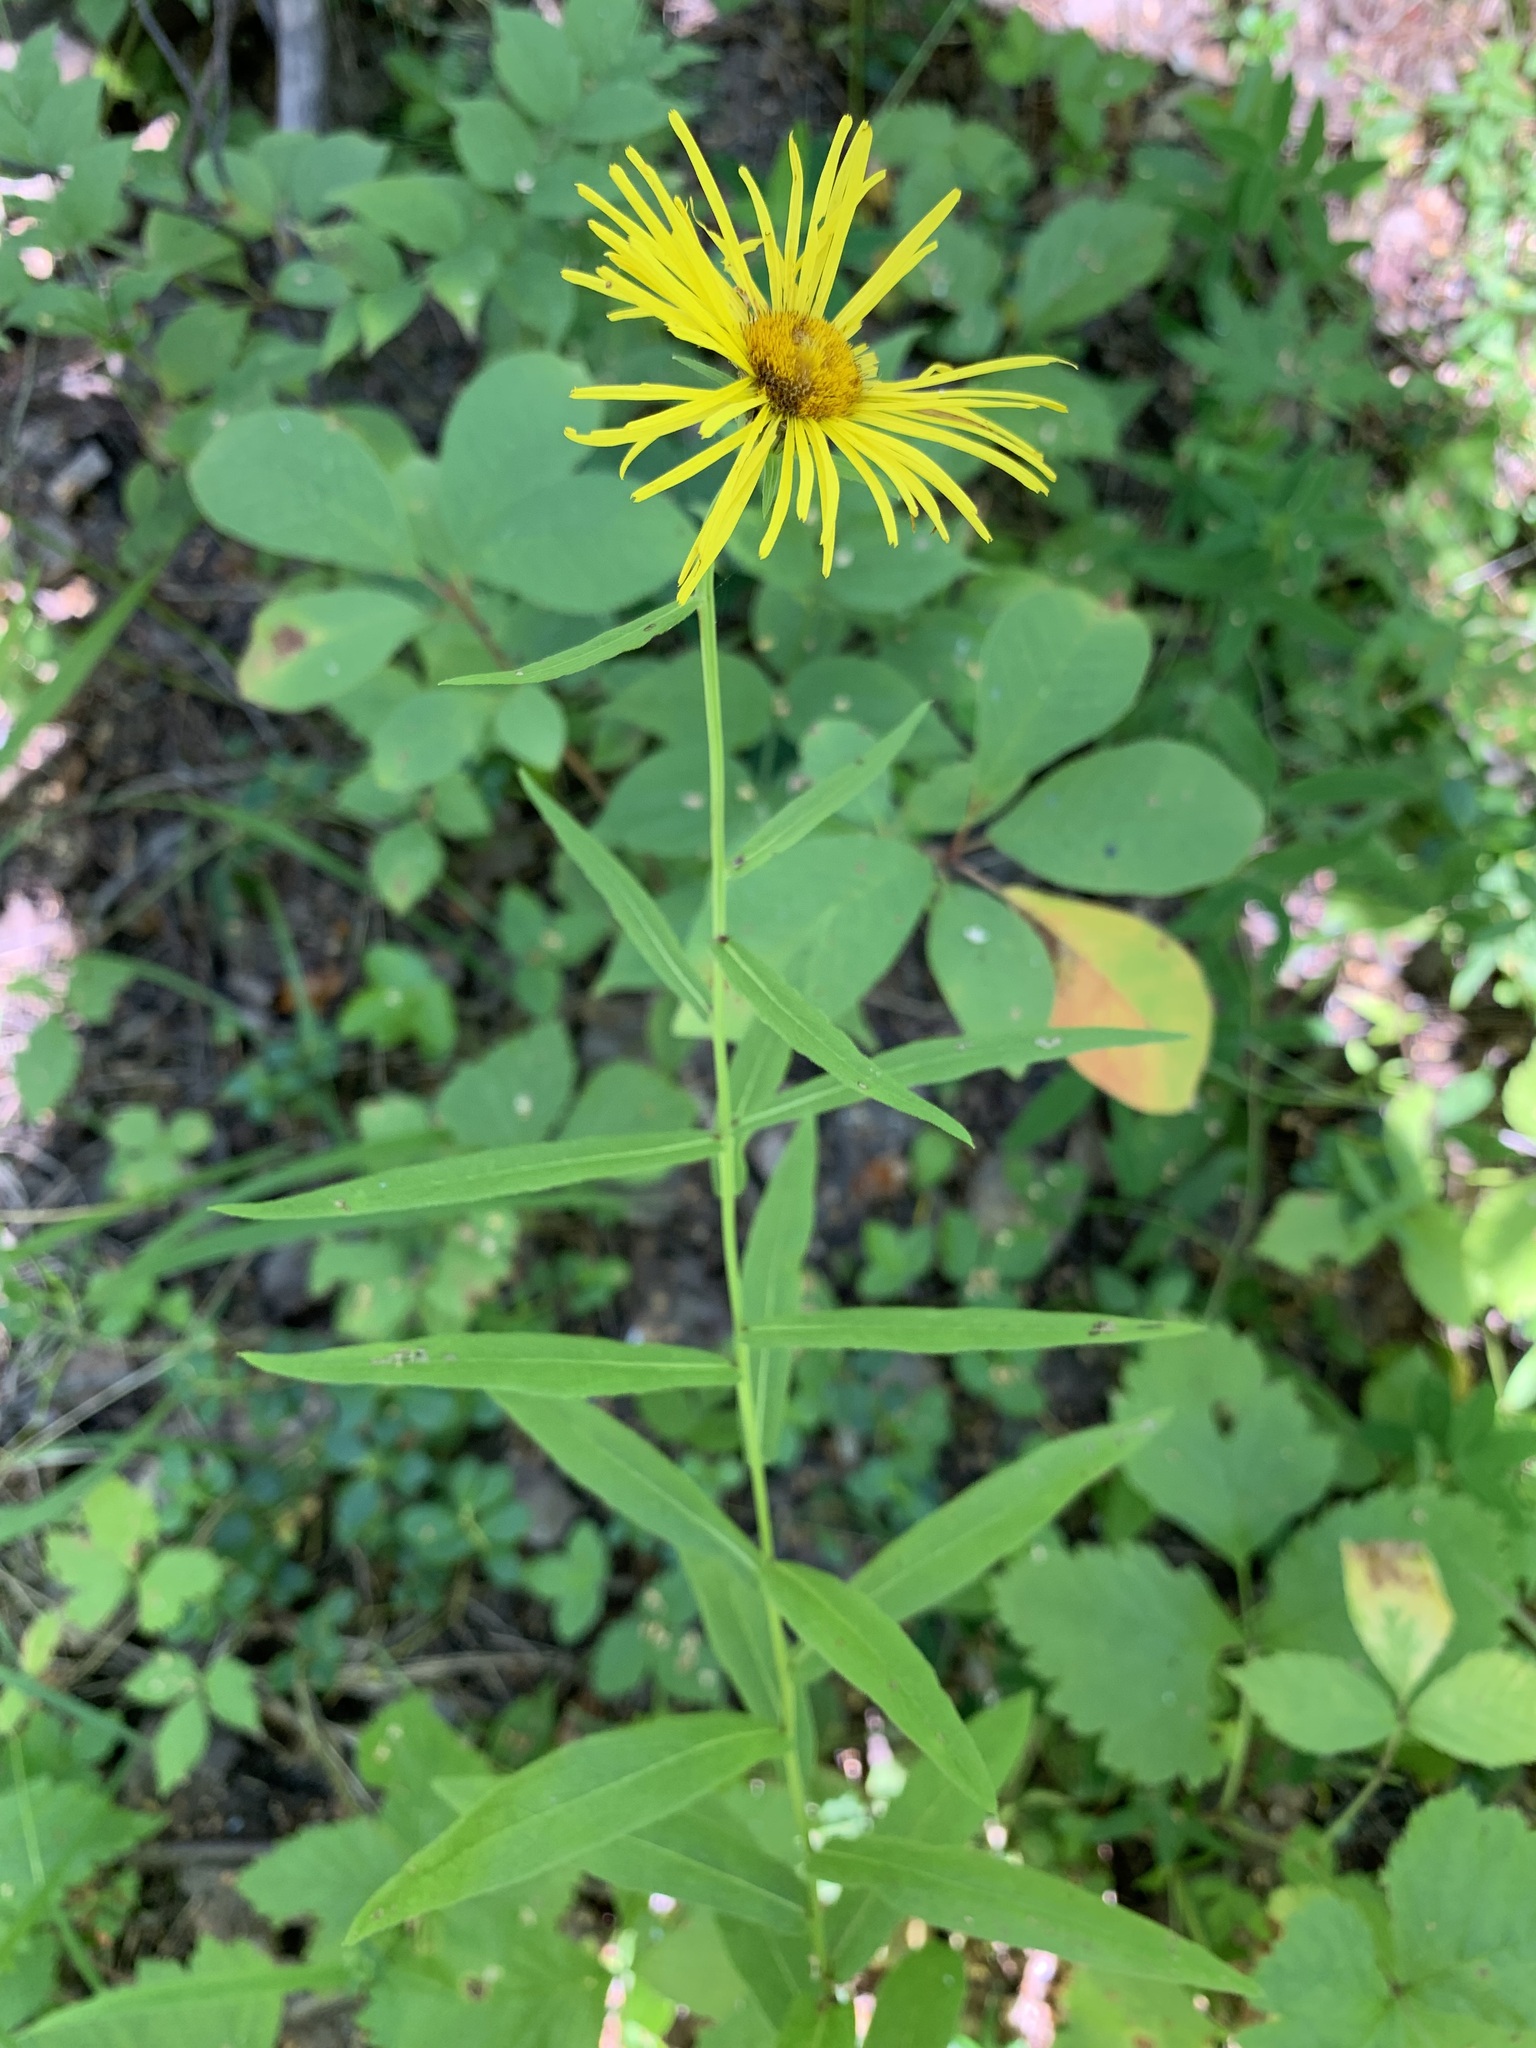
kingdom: Plantae
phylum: Tracheophyta
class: Magnoliopsida
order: Asterales
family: Asteraceae
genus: Pentanema
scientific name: Pentanema salicinum
